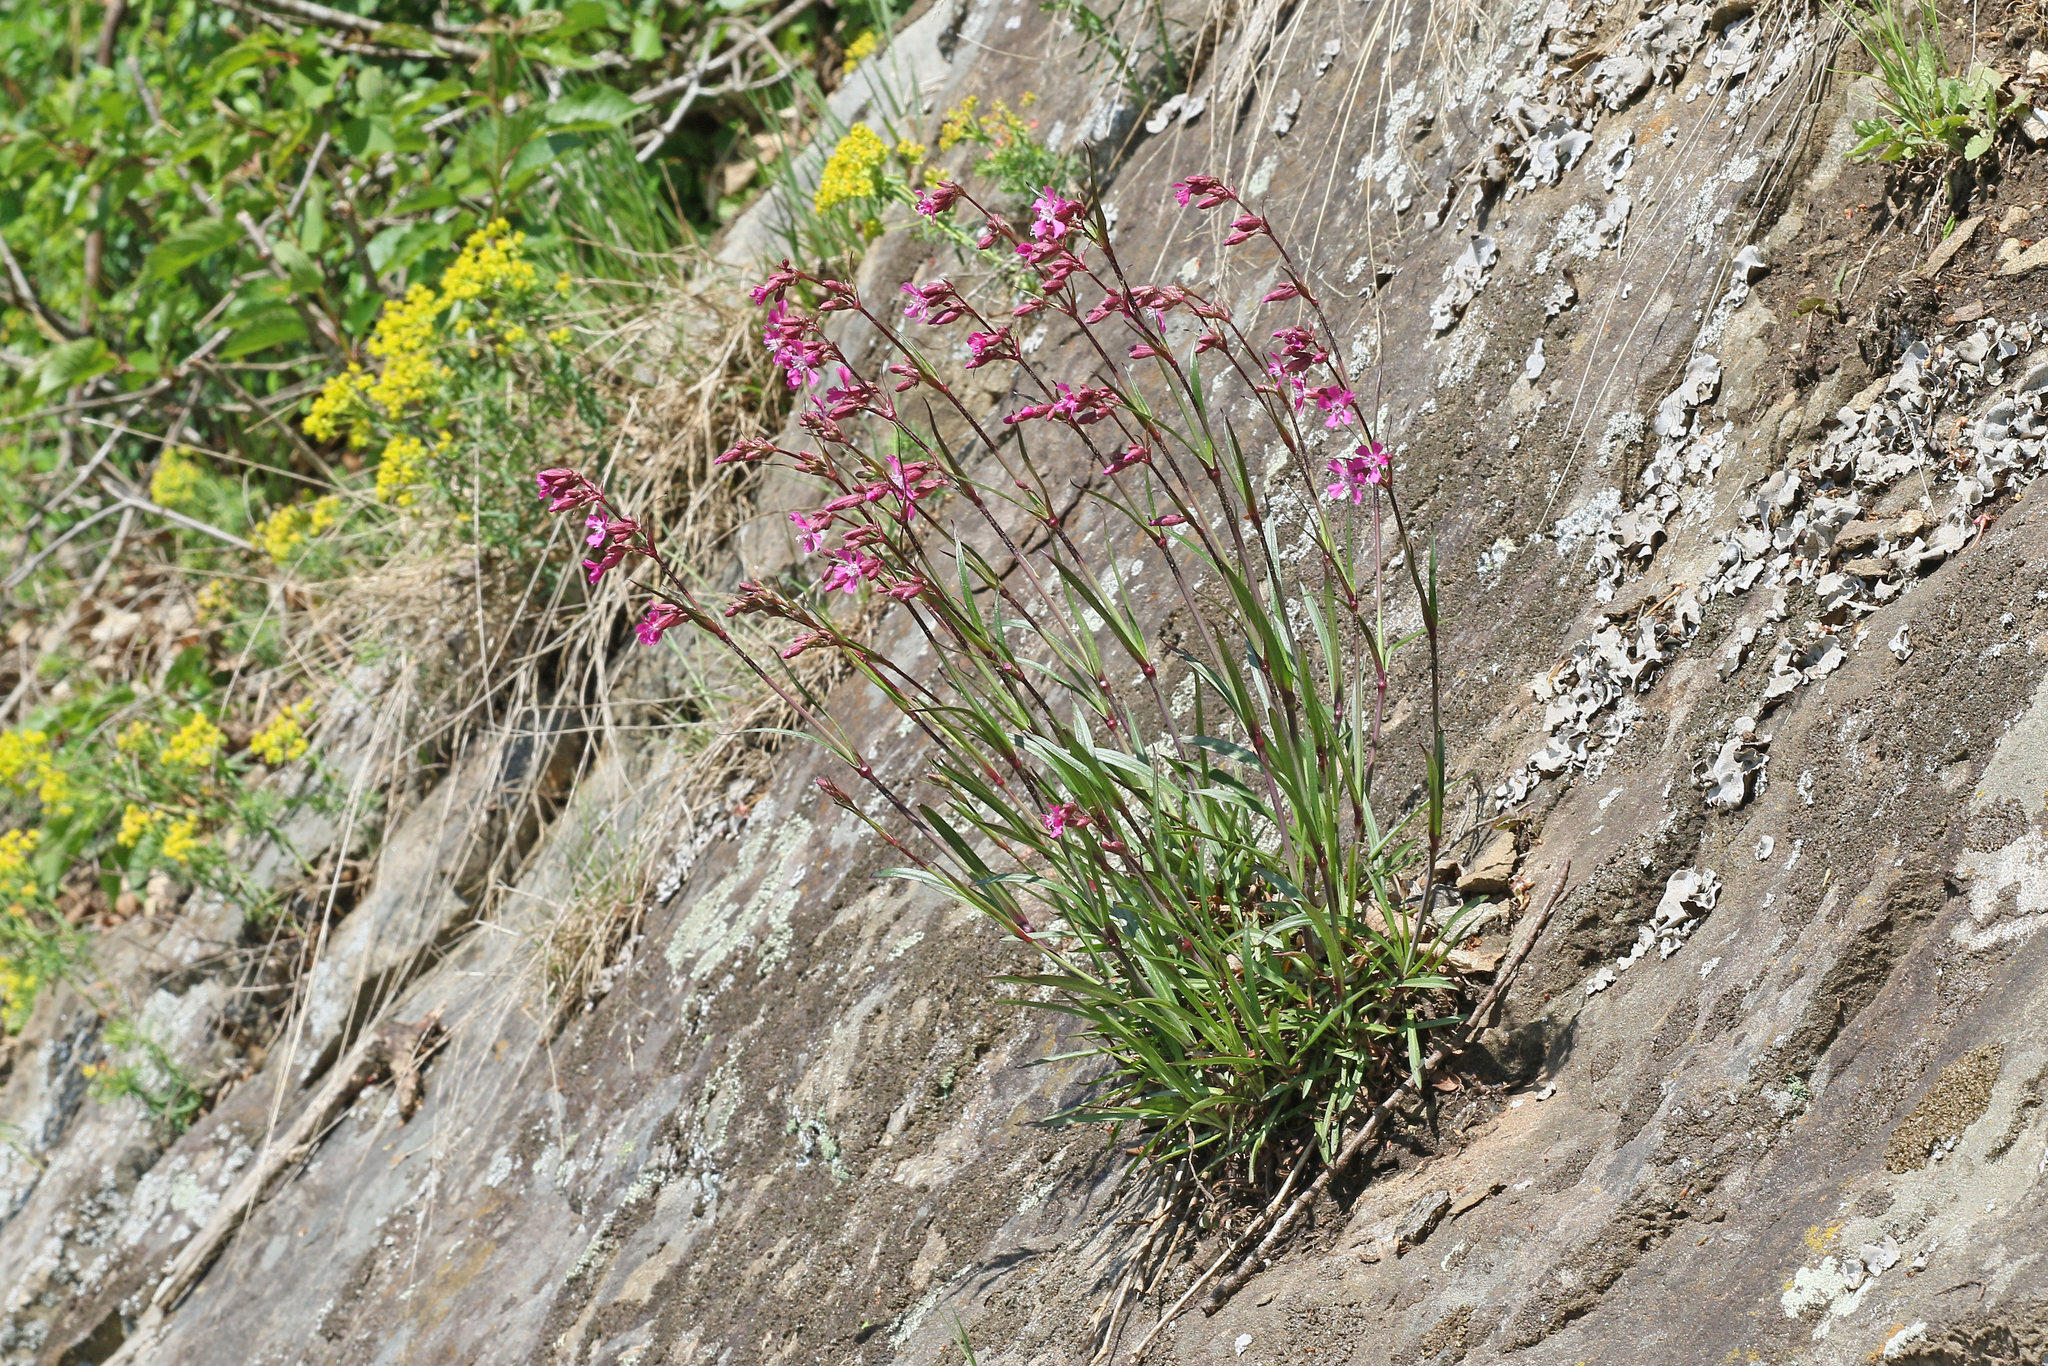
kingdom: Plantae
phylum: Tracheophyta
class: Magnoliopsida
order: Caryophyllales
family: Caryophyllaceae
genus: Viscaria
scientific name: Viscaria vulgaris
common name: Clammy campion
